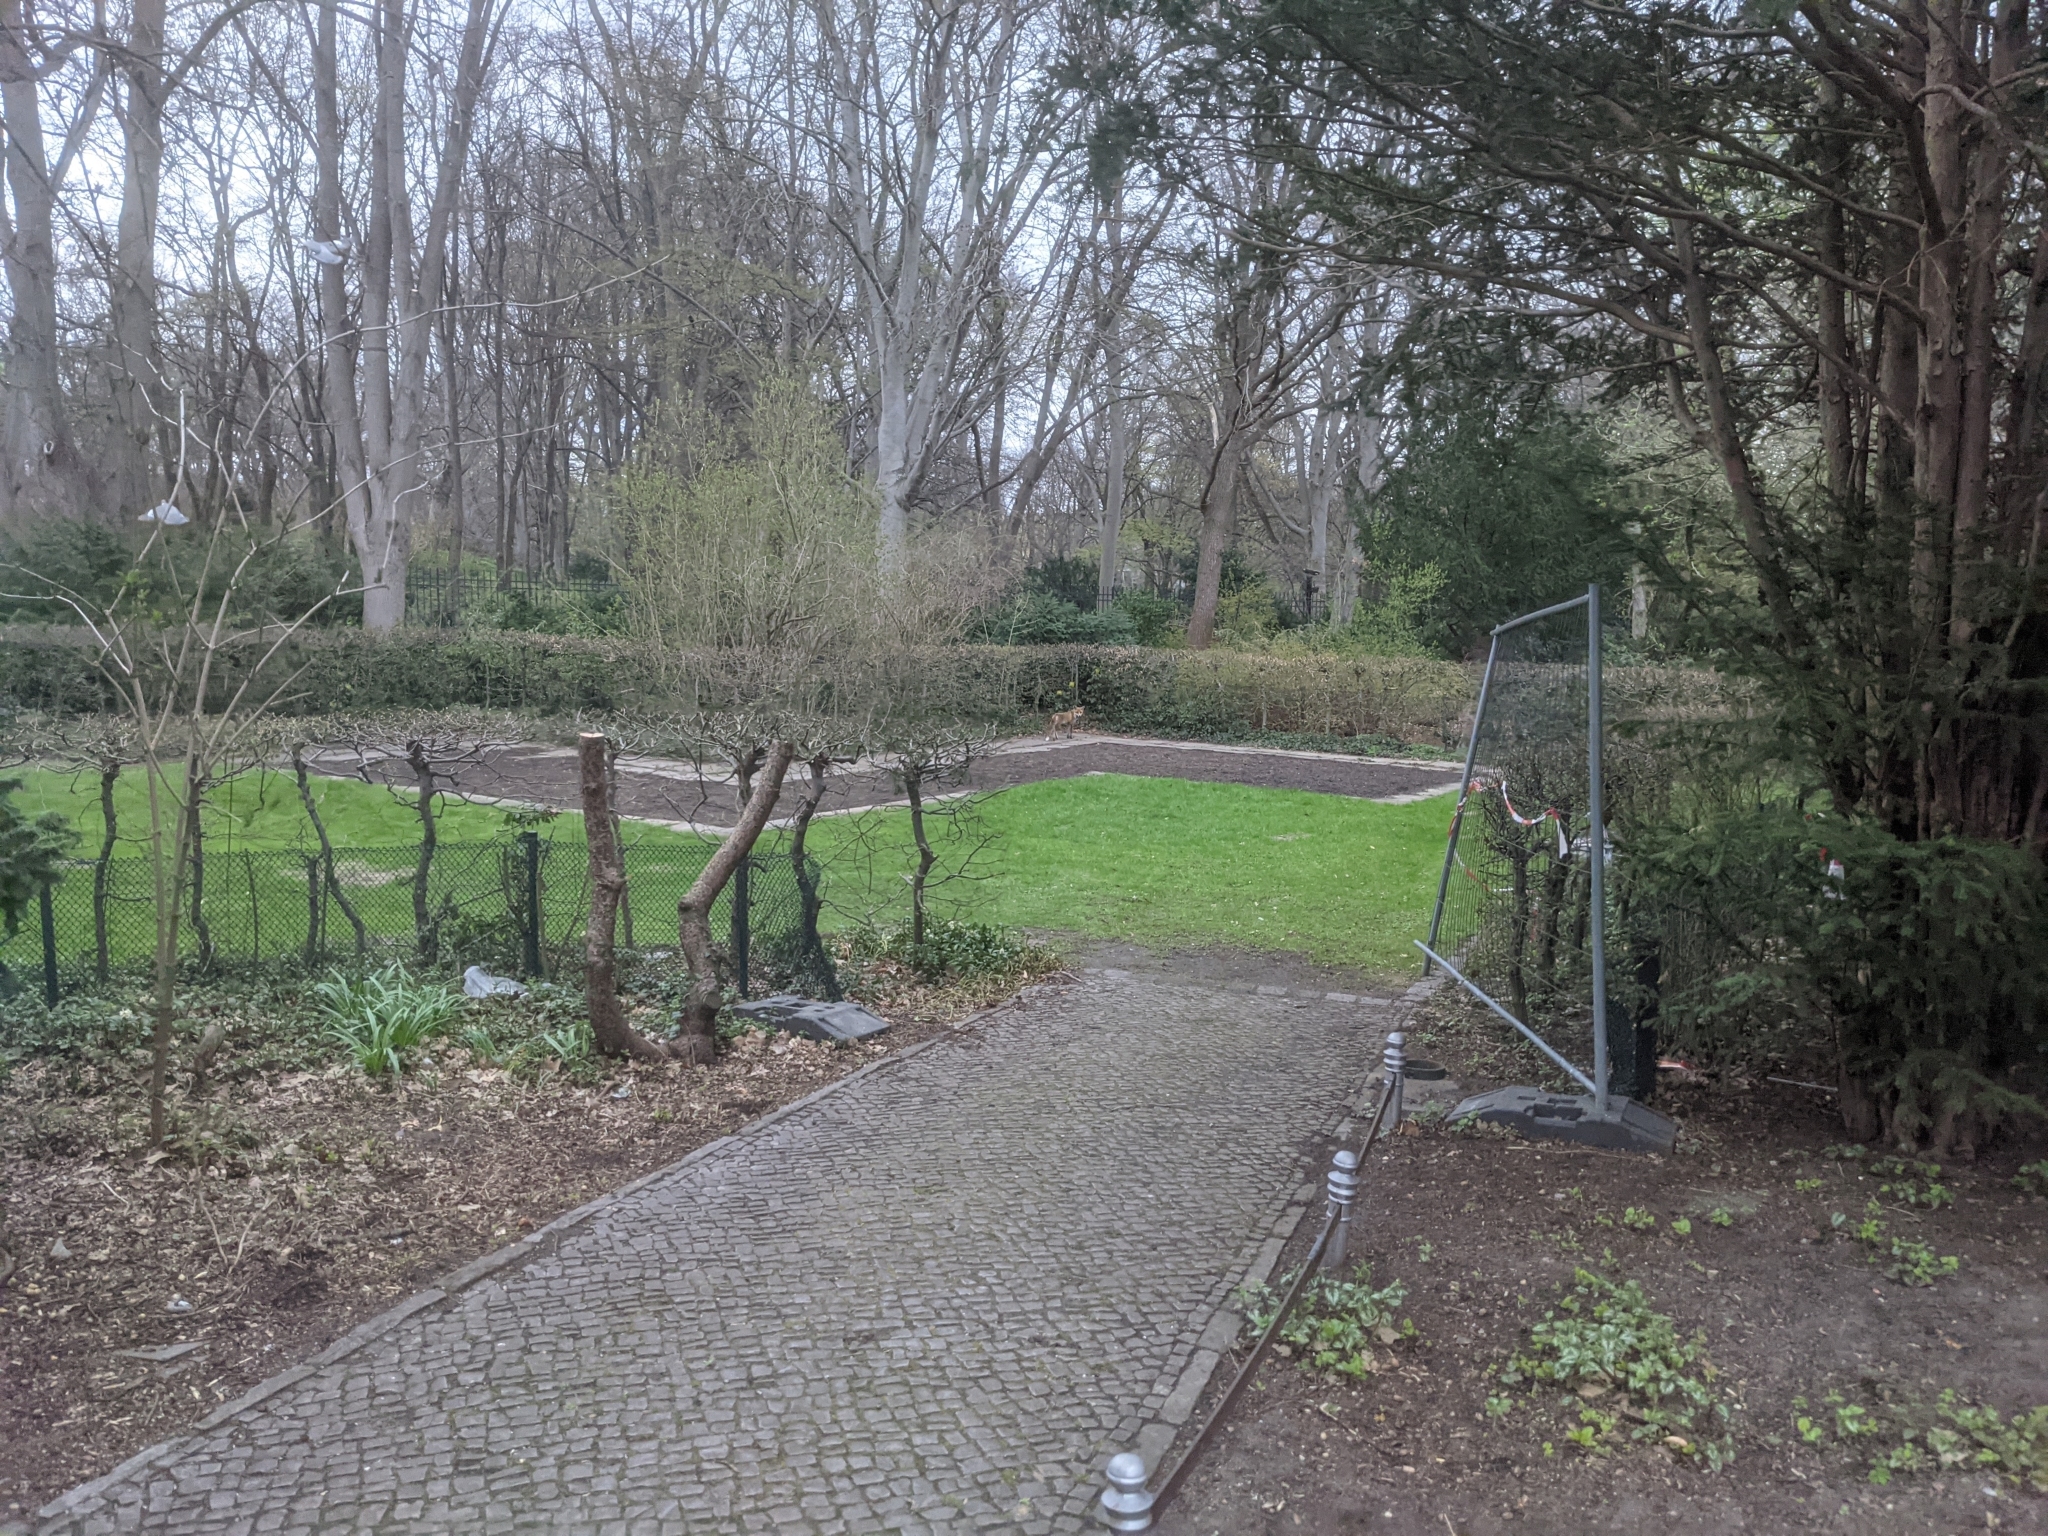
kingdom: Animalia
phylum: Chordata
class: Mammalia
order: Carnivora
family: Canidae
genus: Vulpes
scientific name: Vulpes vulpes
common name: Red fox
